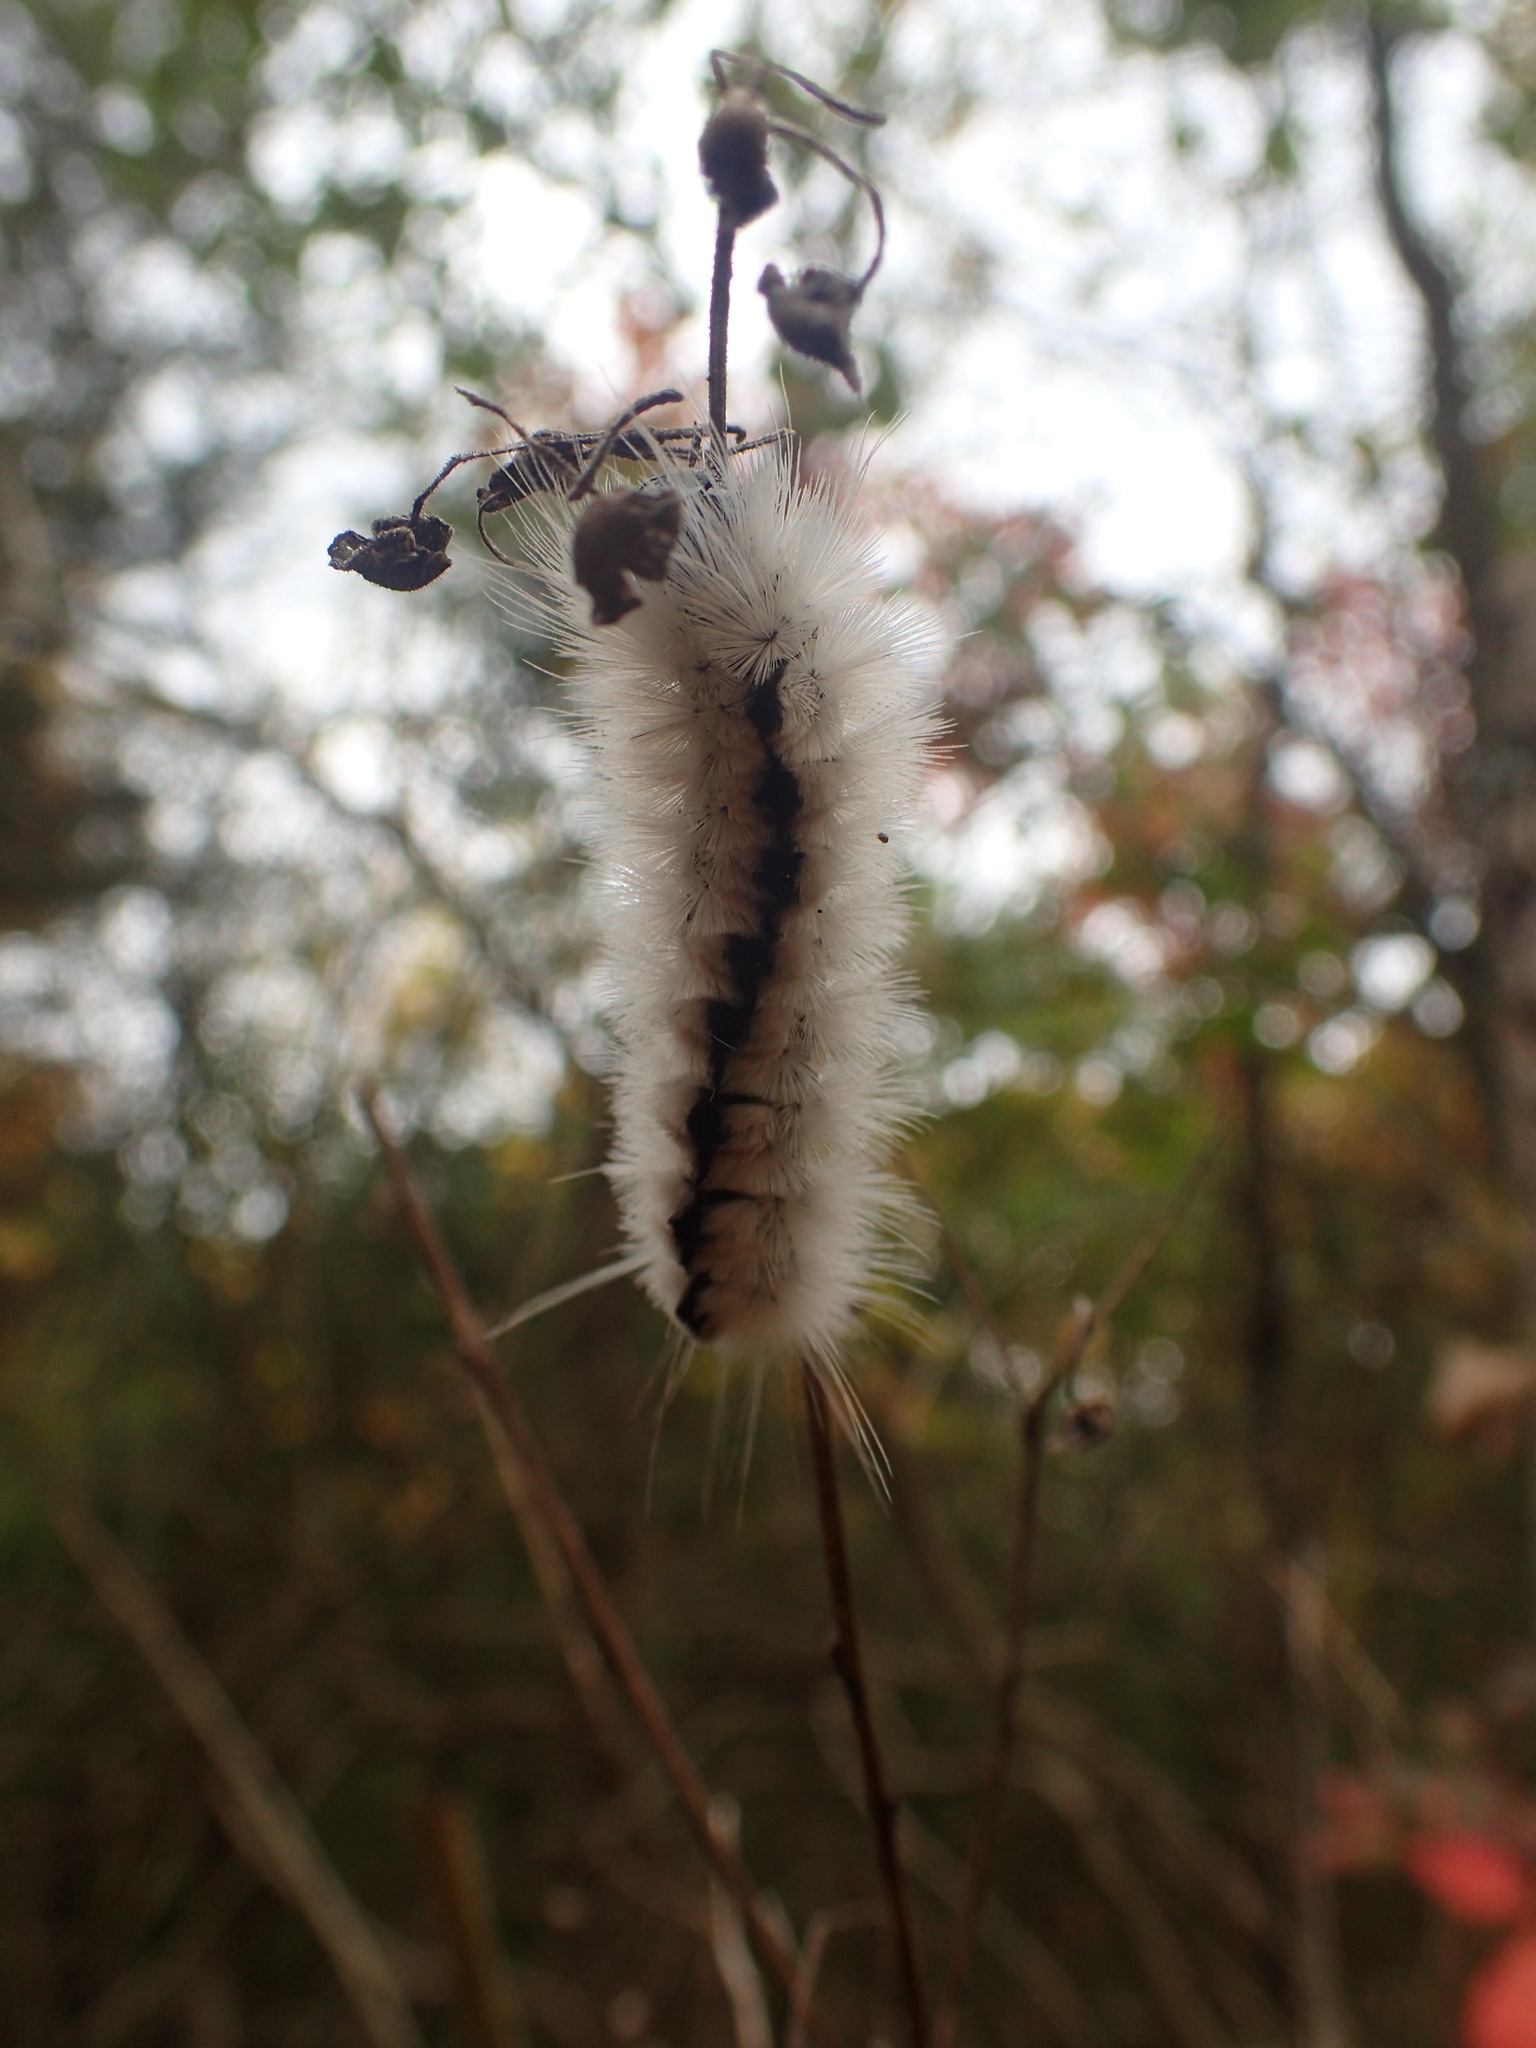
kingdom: Animalia
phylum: Arthropoda
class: Insecta
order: Lepidoptera
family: Erebidae
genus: Lophocampa
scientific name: Lophocampa caryae
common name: Hickory tussock moth
